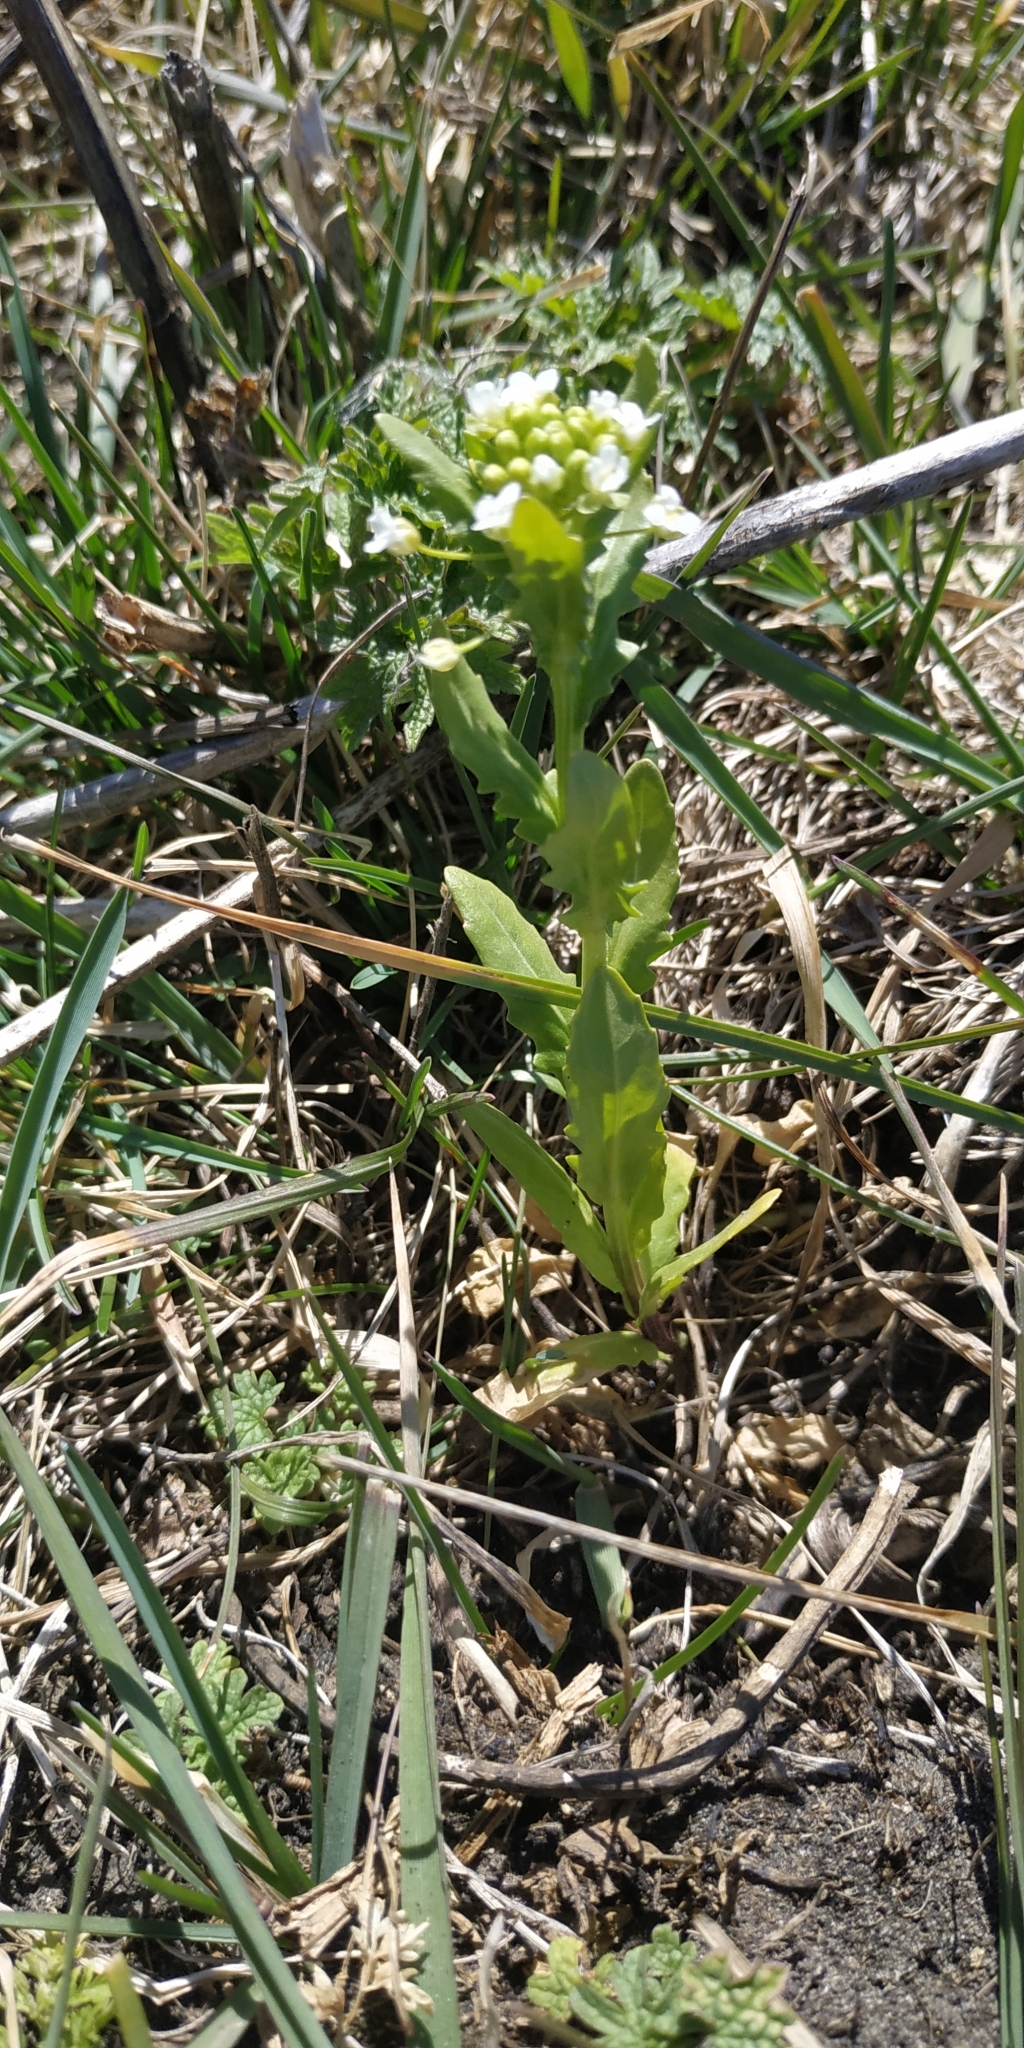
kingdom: Plantae
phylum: Tracheophyta
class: Magnoliopsida
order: Brassicales
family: Brassicaceae
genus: Thlaspi
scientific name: Thlaspi arvense
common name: Field pennycress
